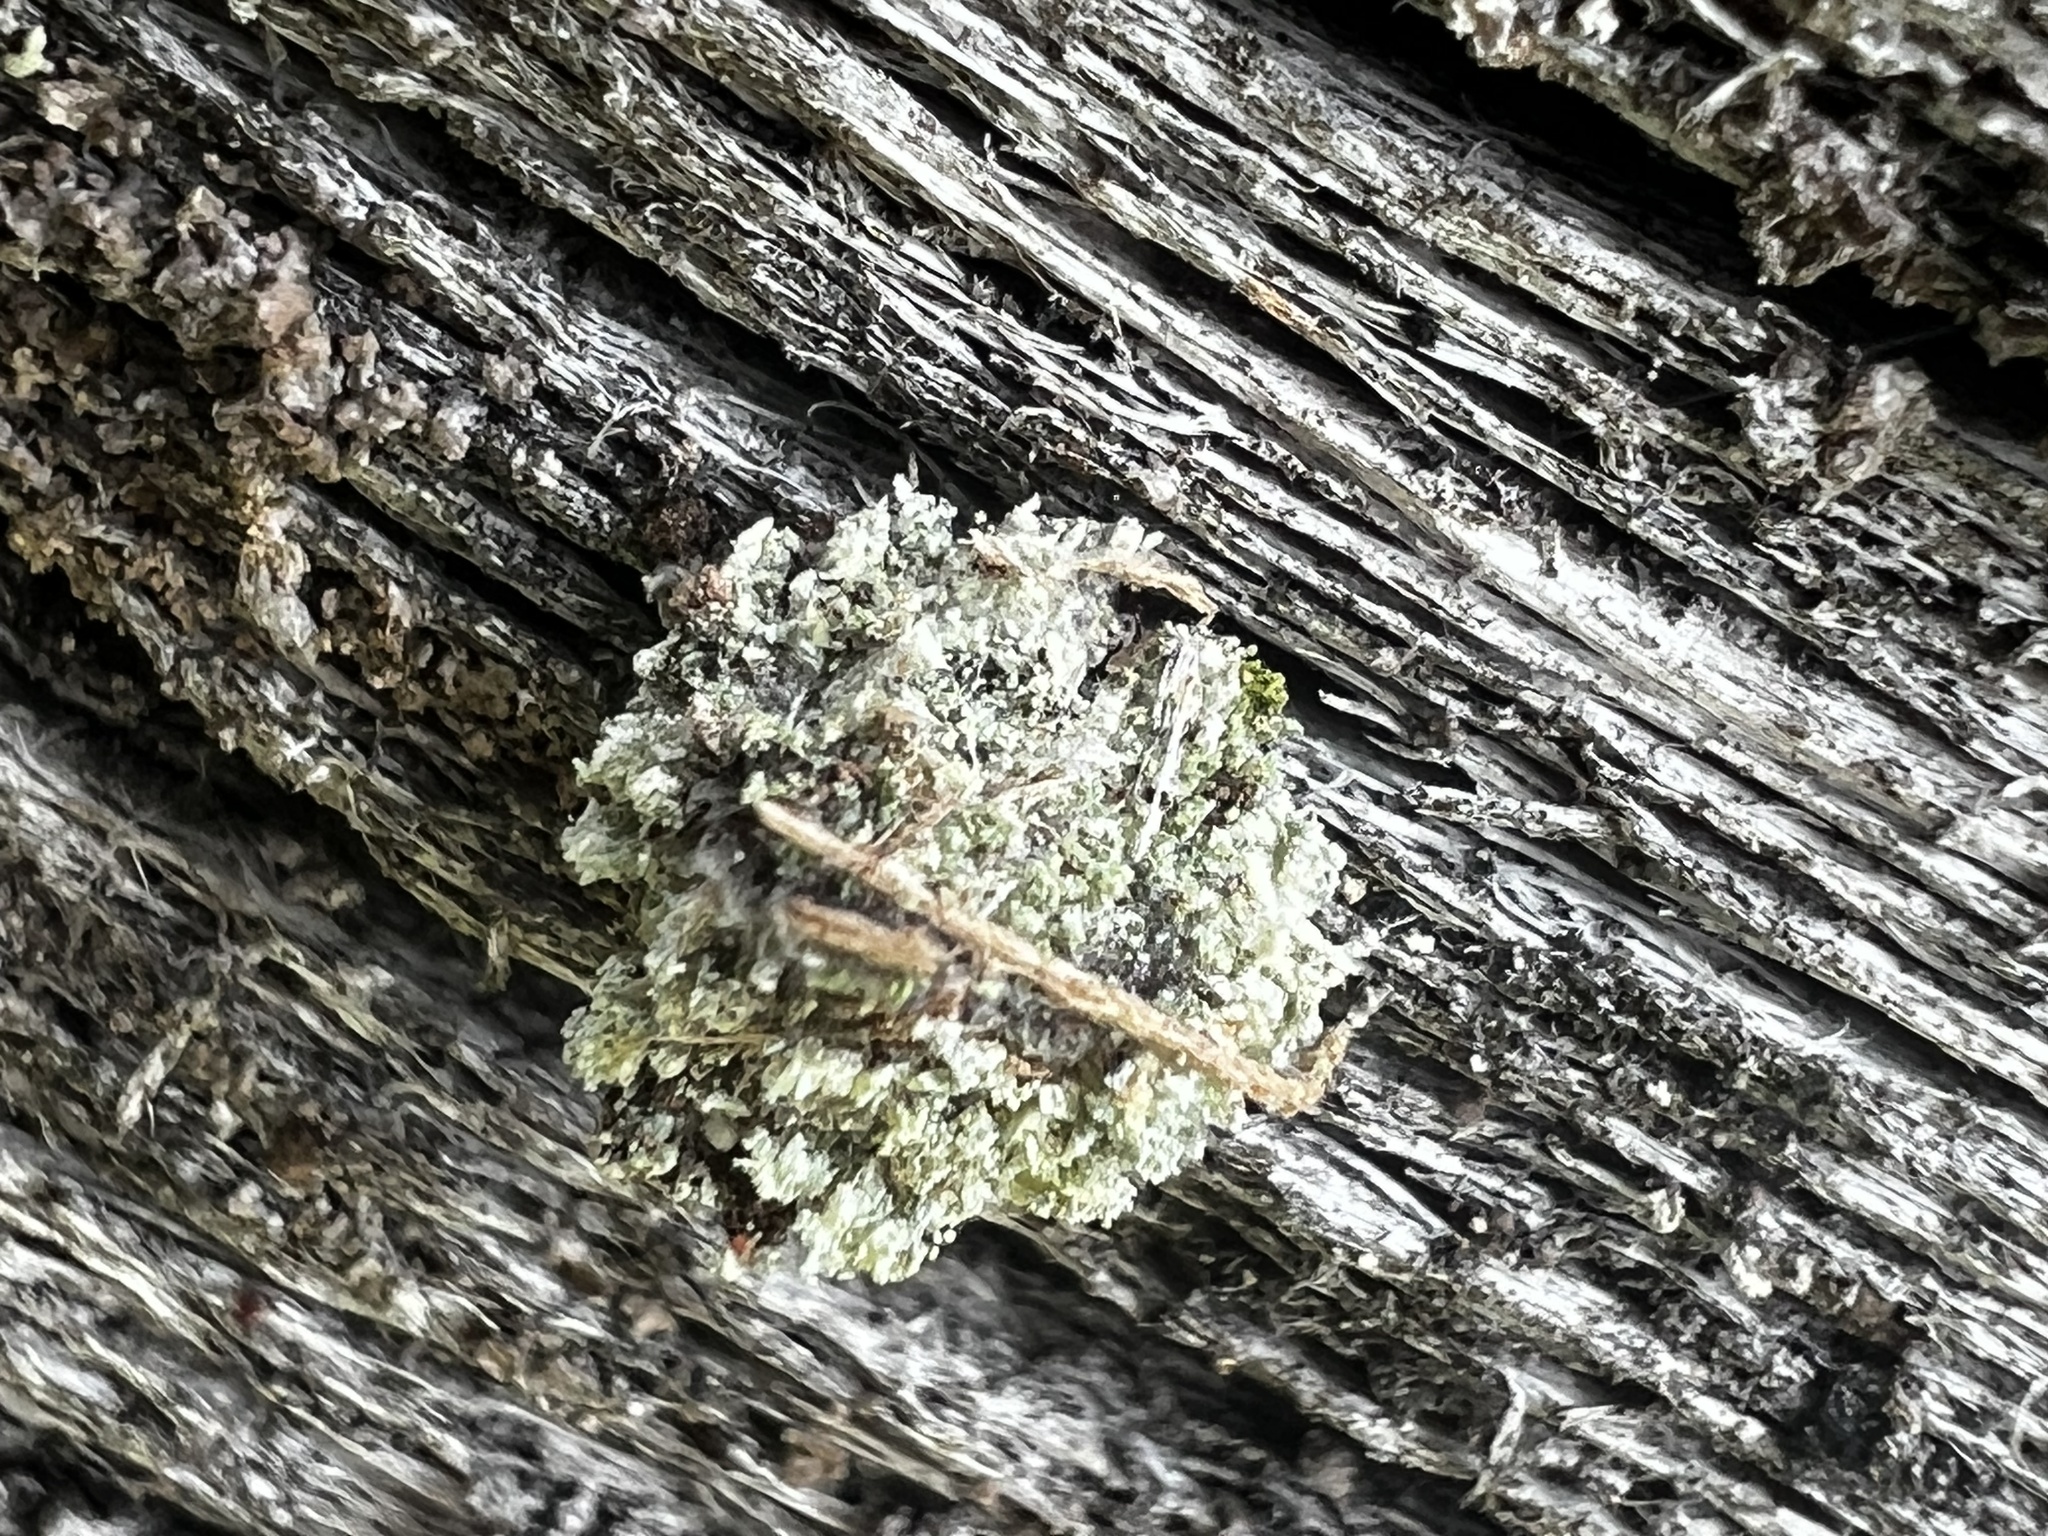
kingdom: Animalia
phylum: Arthropoda
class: Insecta
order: Neuroptera
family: Chrysopidae
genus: Leucochrysa
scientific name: Leucochrysa pavida
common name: Lichen-carrying green lacewing
